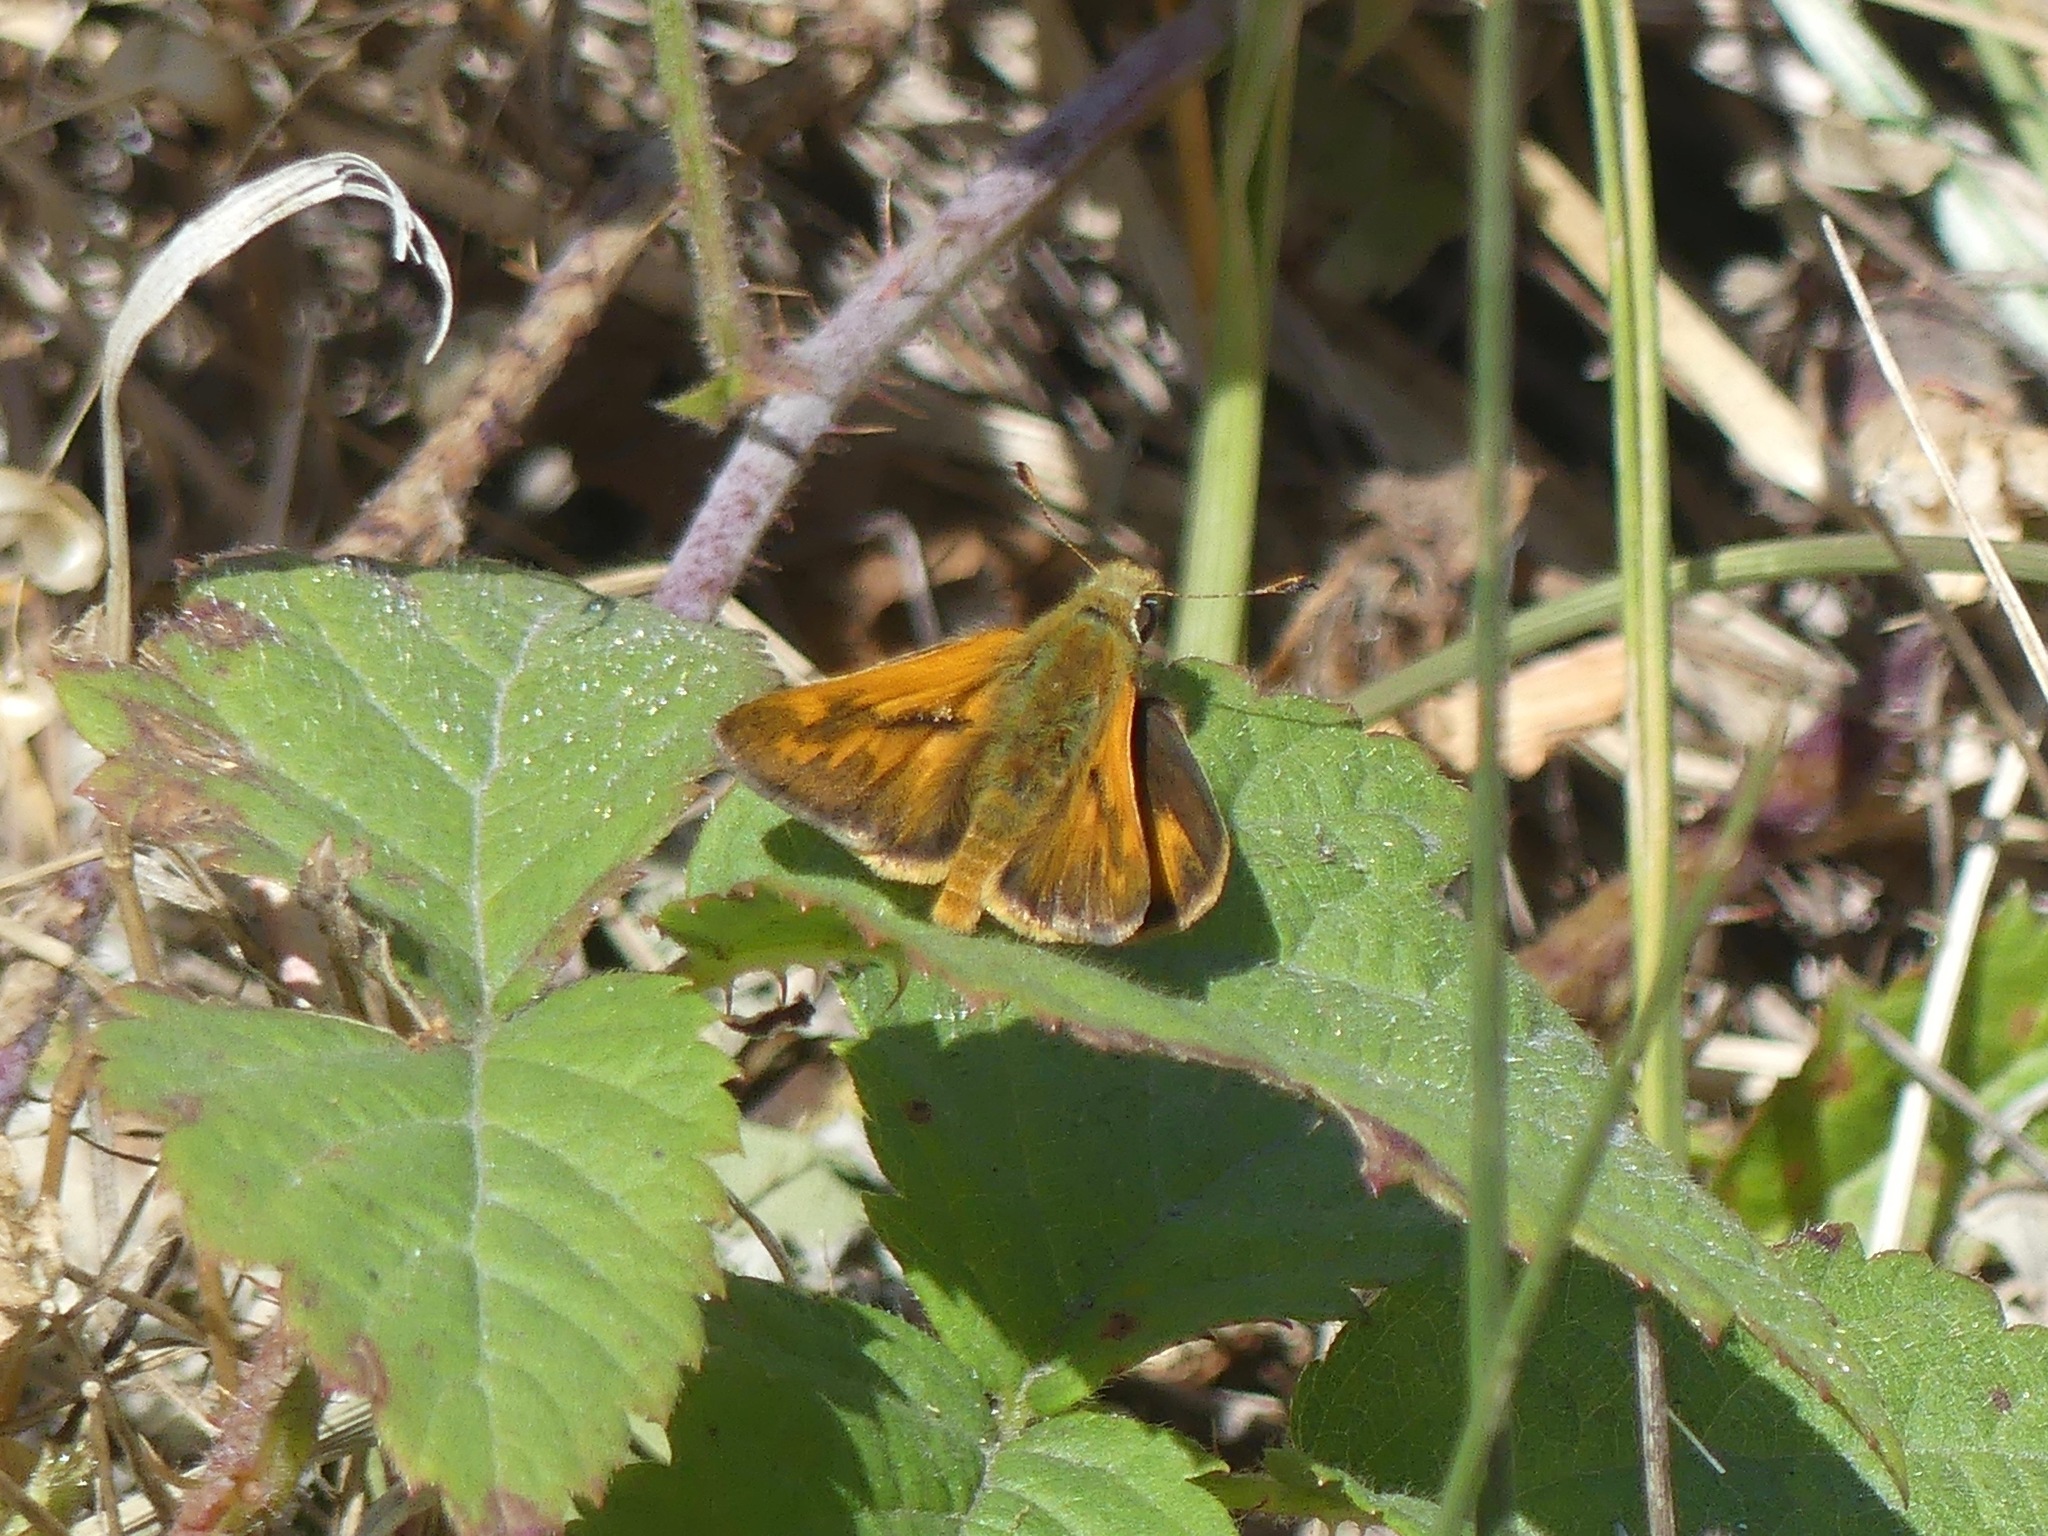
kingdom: Animalia
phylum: Arthropoda
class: Insecta
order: Lepidoptera
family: Hesperiidae
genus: Ochlodes
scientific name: Ochlodes sylvanoides
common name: Woodland skipper
